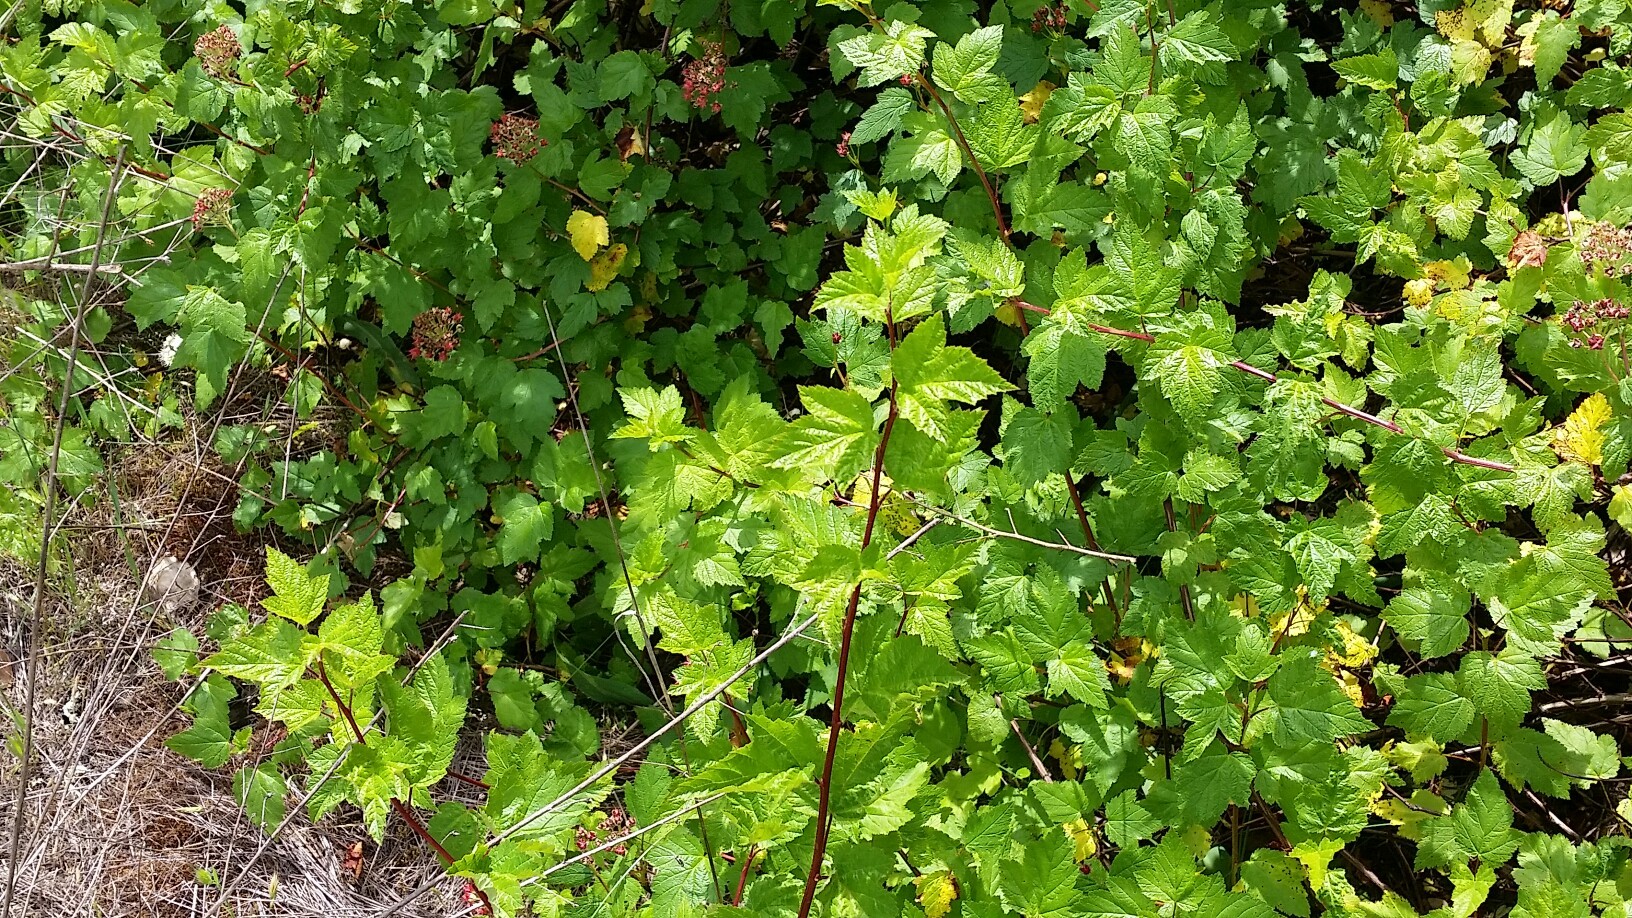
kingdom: Plantae
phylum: Tracheophyta
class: Magnoliopsida
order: Rosales
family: Rosaceae
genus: Physocarpus
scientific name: Physocarpus capitatus
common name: Pacific ninebark
